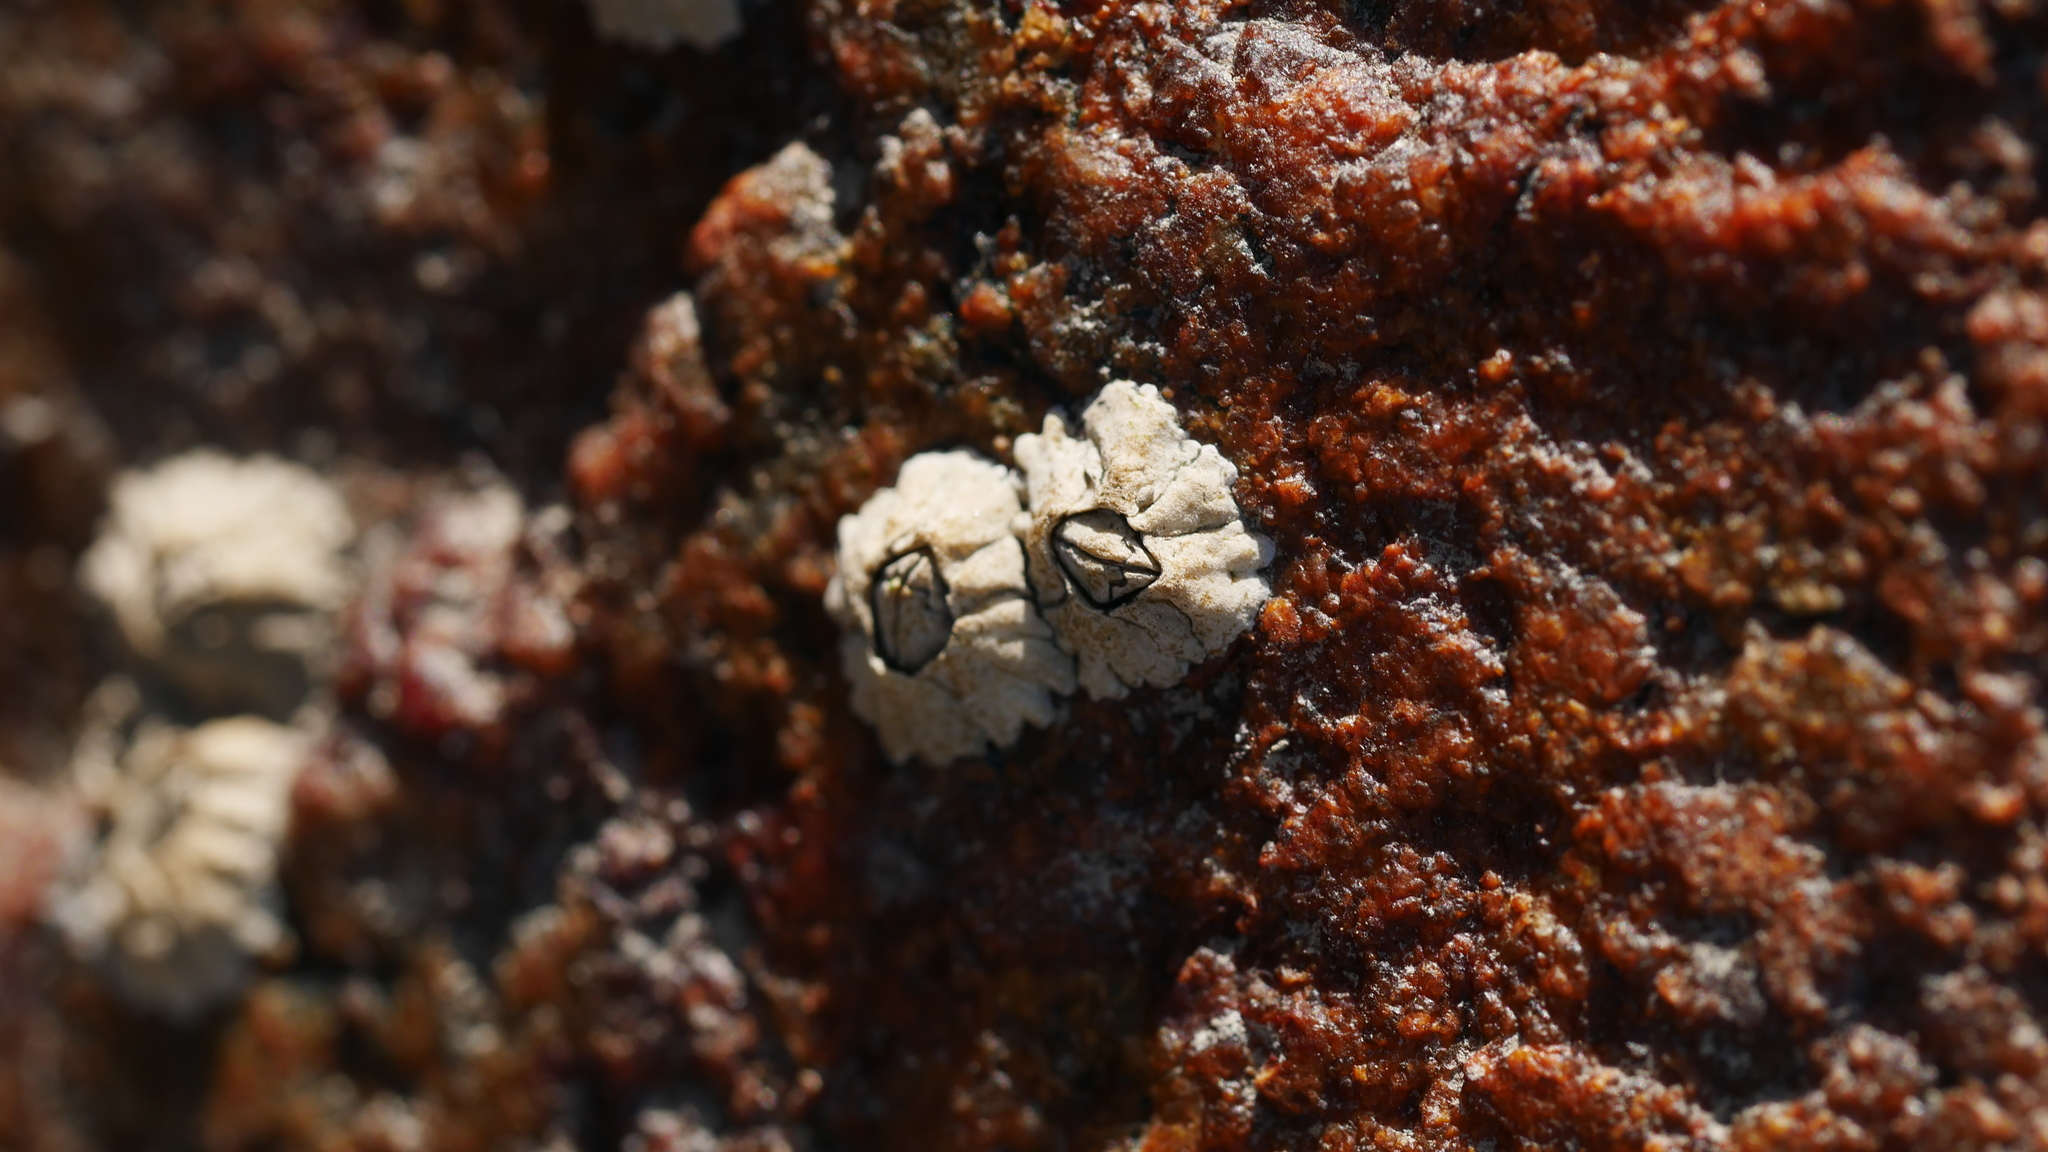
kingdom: Animalia
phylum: Arthropoda
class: Maxillopoda
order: Sessilia
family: Archaeobalanidae
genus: Semibalanus
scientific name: Semibalanus balanoides
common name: Acorn barnacle
